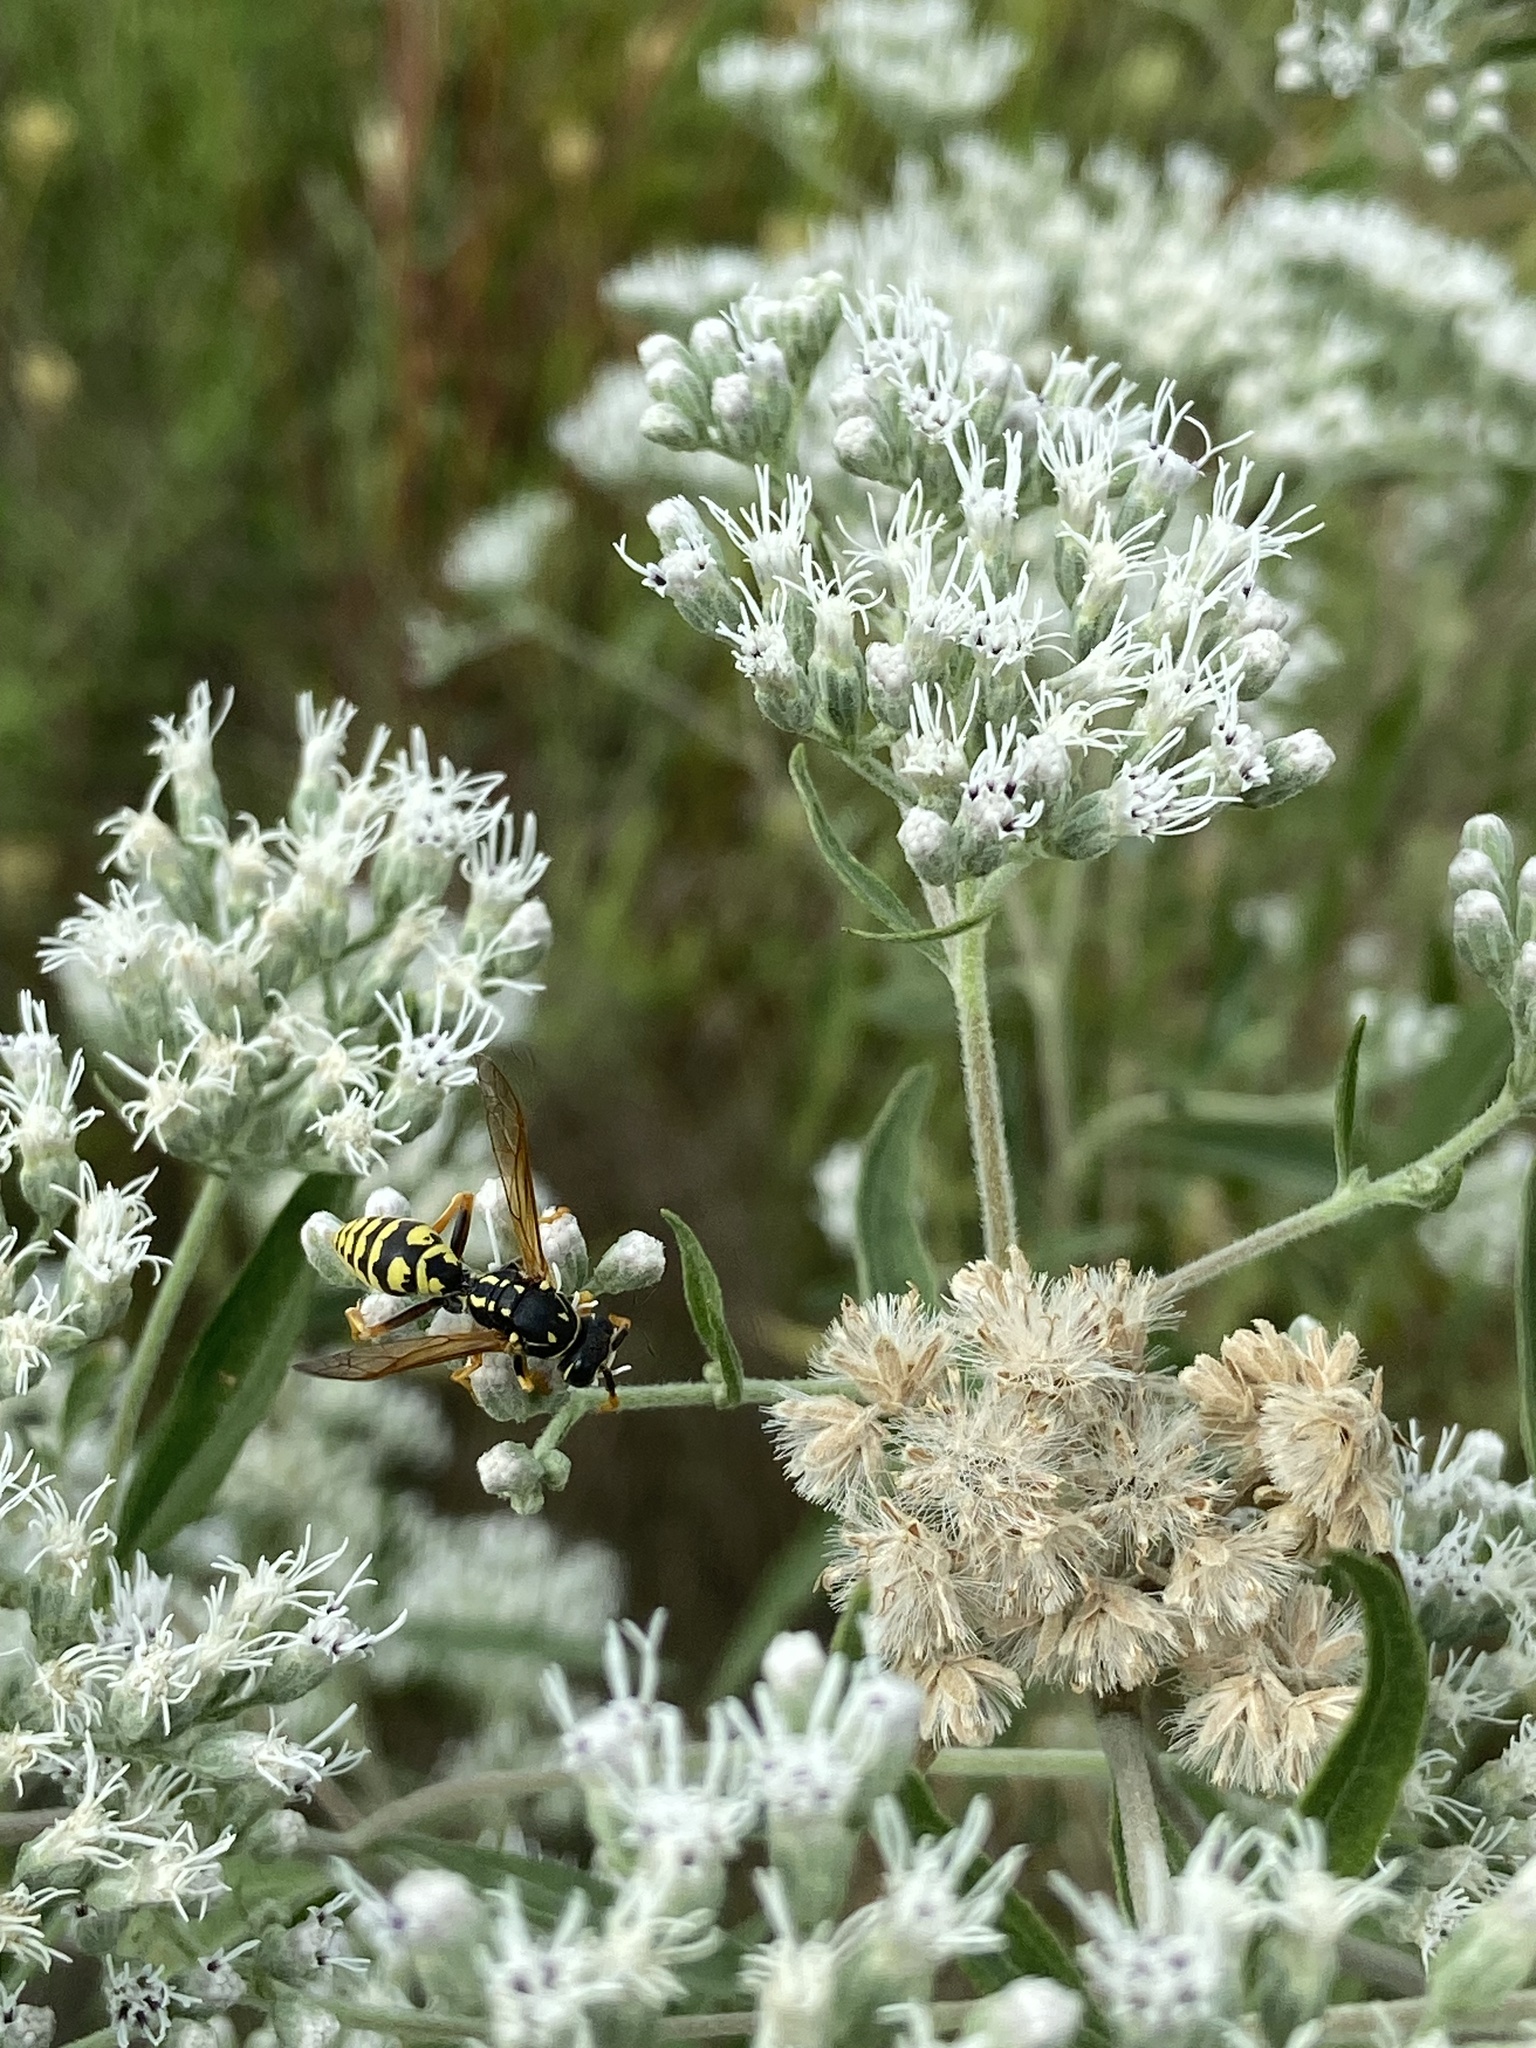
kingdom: Animalia
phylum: Arthropoda
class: Insecta
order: Hymenoptera
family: Eumenidae
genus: Polistes
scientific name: Polistes dominula
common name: Paper wasp
